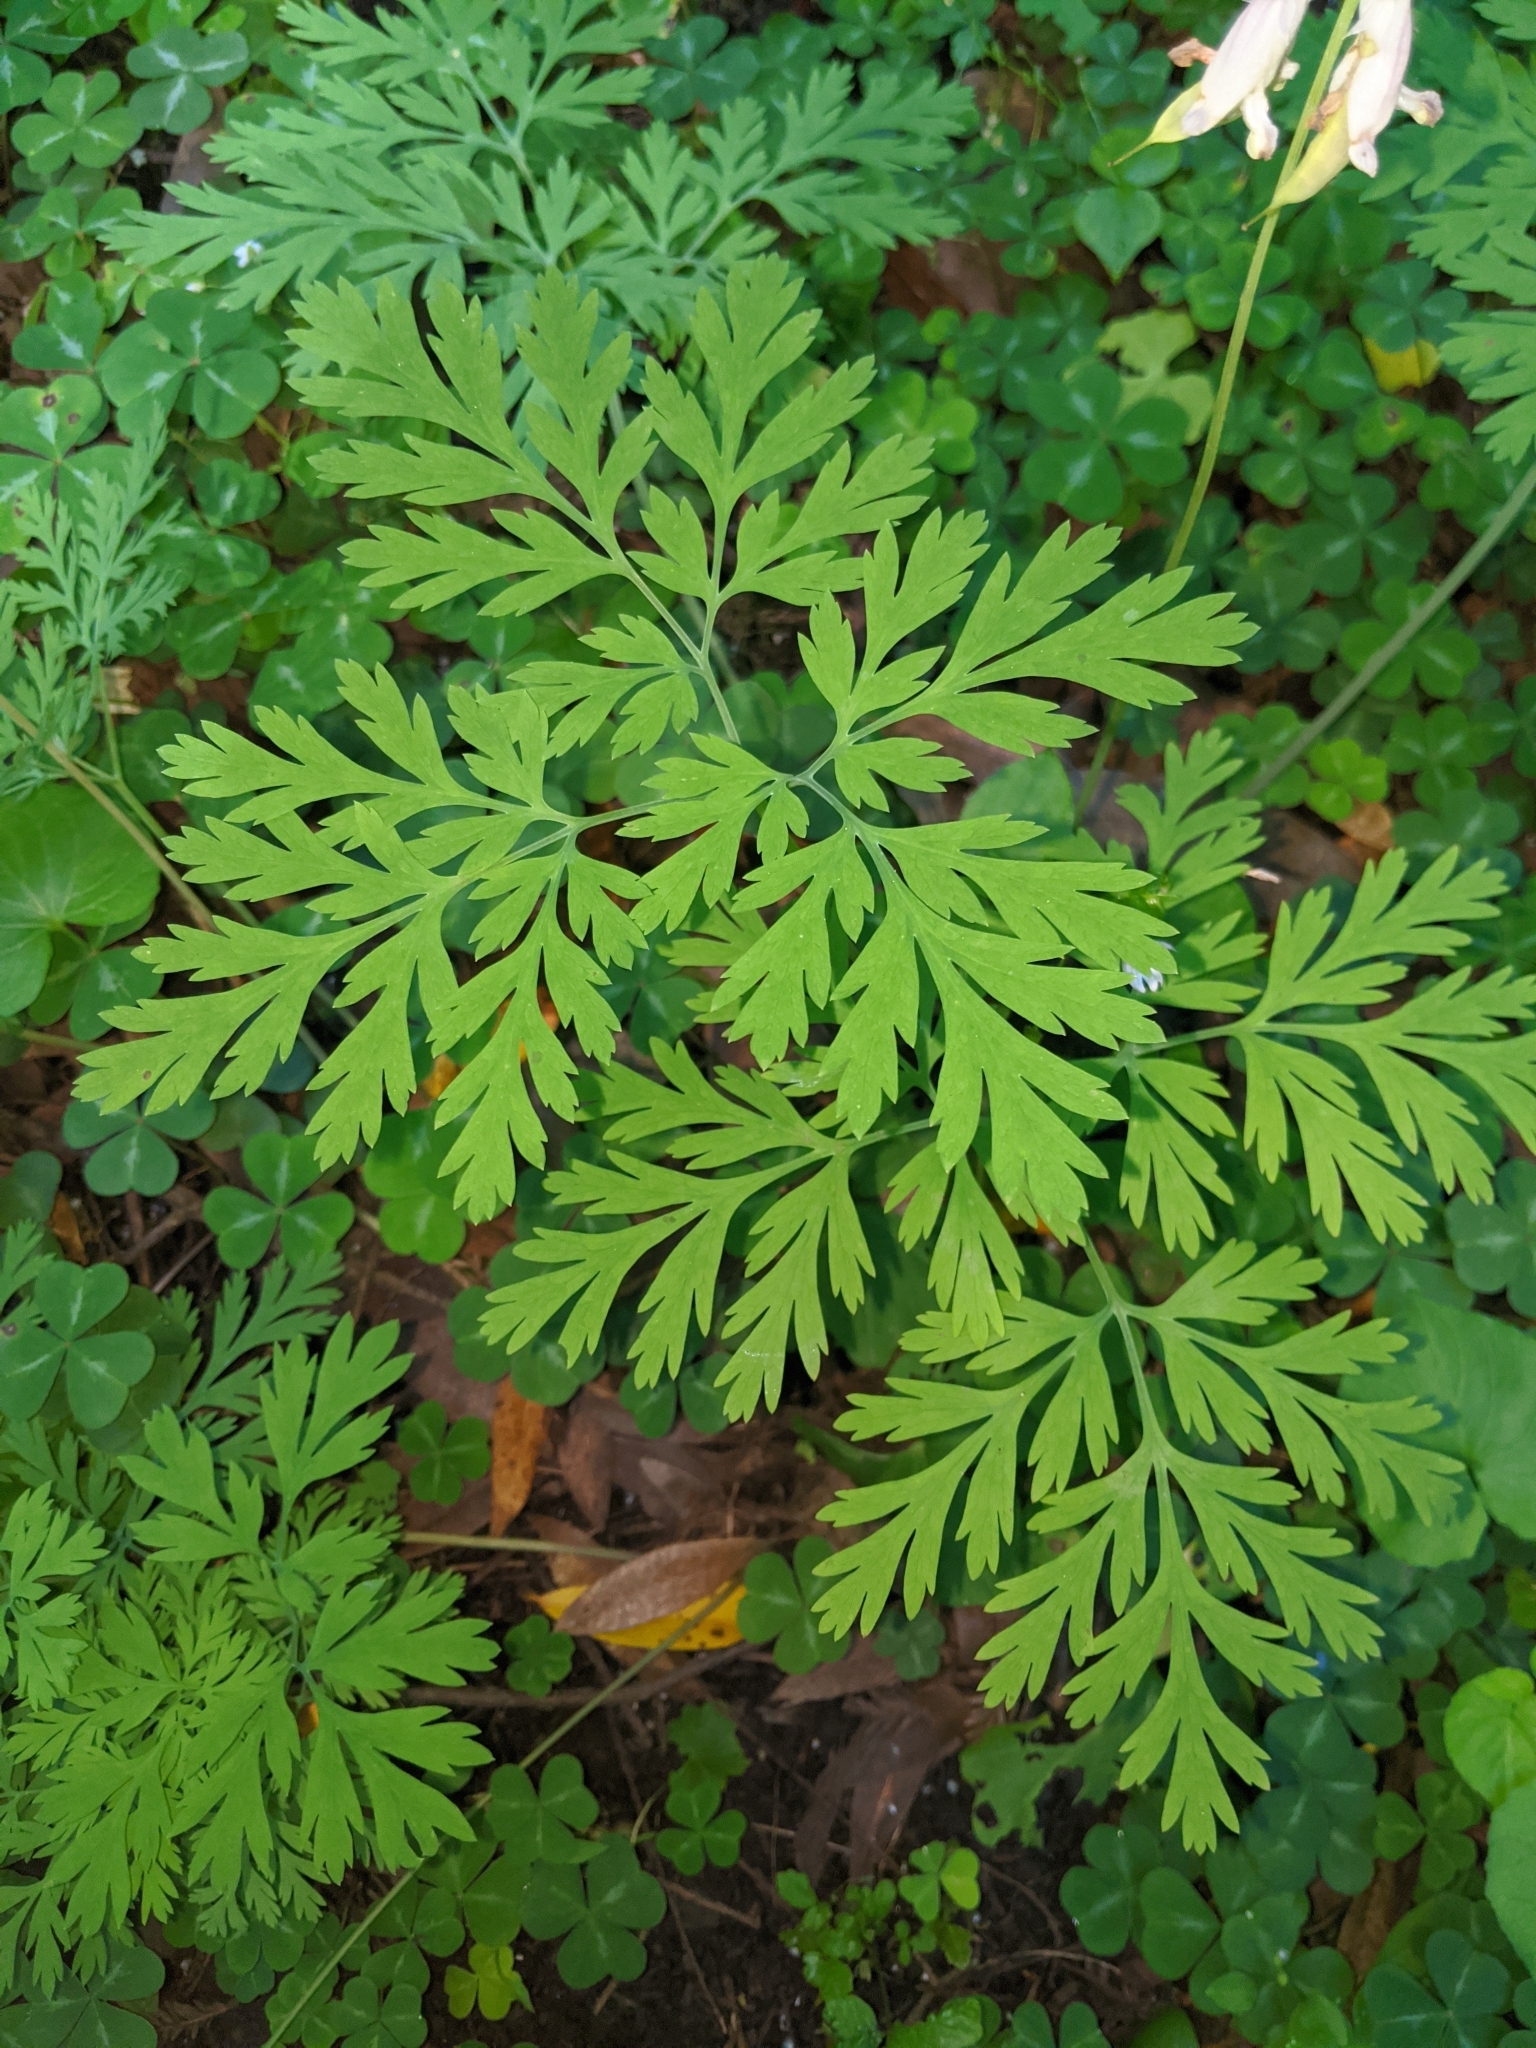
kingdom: Plantae
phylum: Tracheophyta
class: Magnoliopsida
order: Ranunculales
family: Papaveraceae
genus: Dicentra
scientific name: Dicentra formosa
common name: Bleeding-heart
